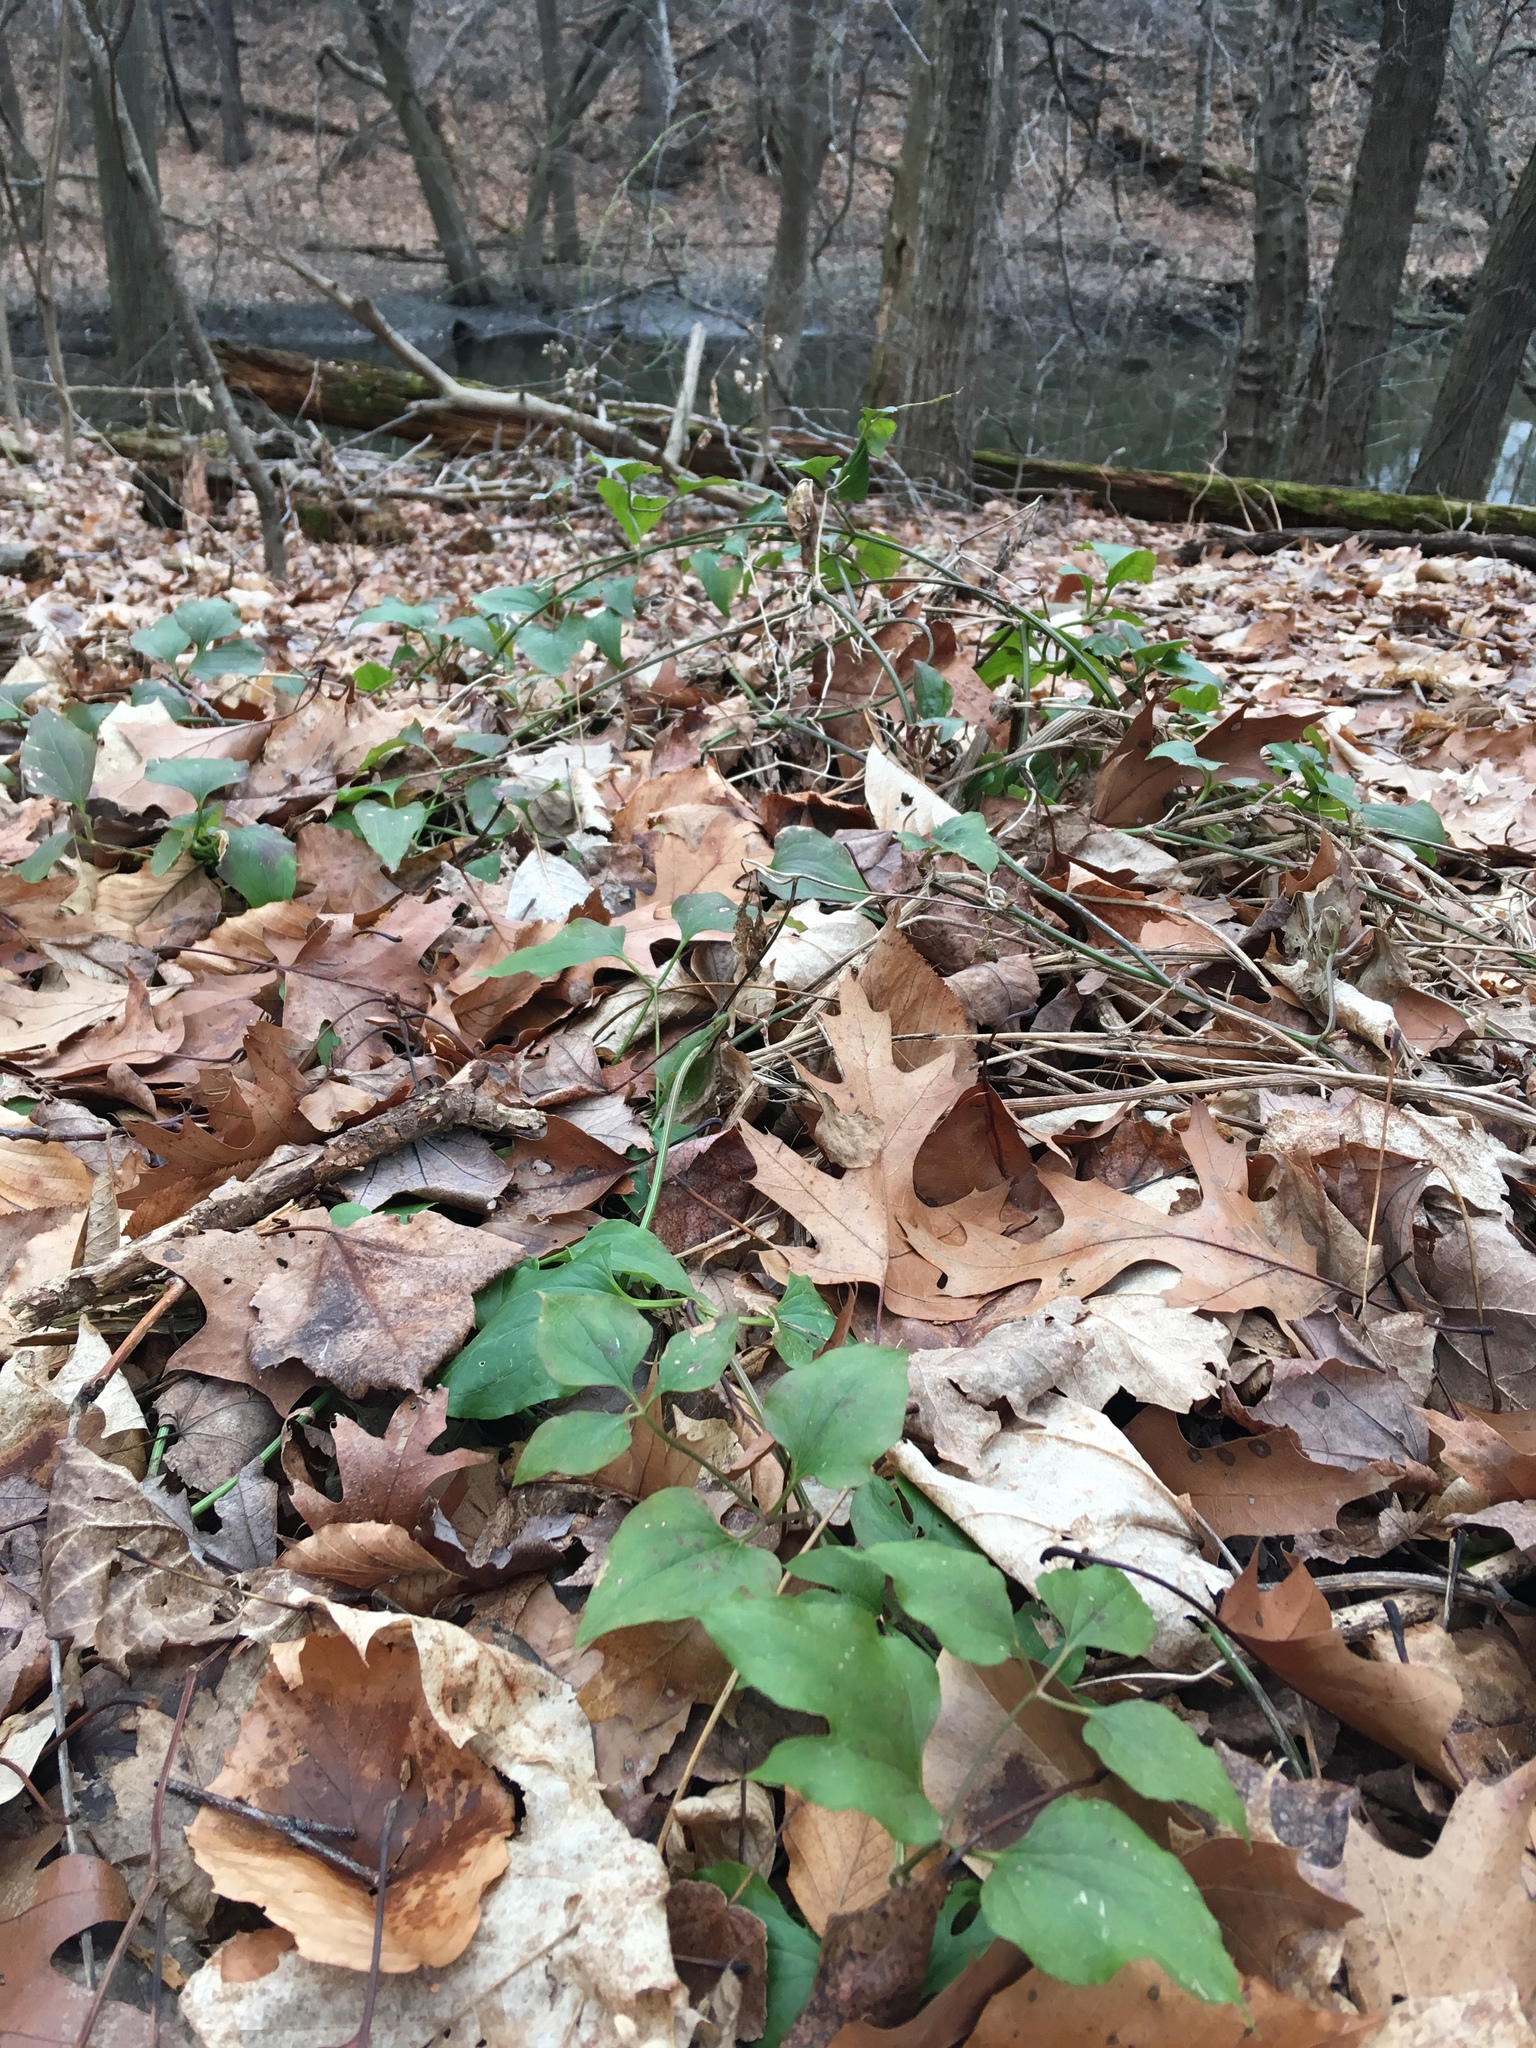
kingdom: Plantae
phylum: Tracheophyta
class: Magnoliopsida
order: Ranunculales
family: Ranunculaceae
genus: Clematis
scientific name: Clematis terniflora
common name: Sweet autumn clematis
